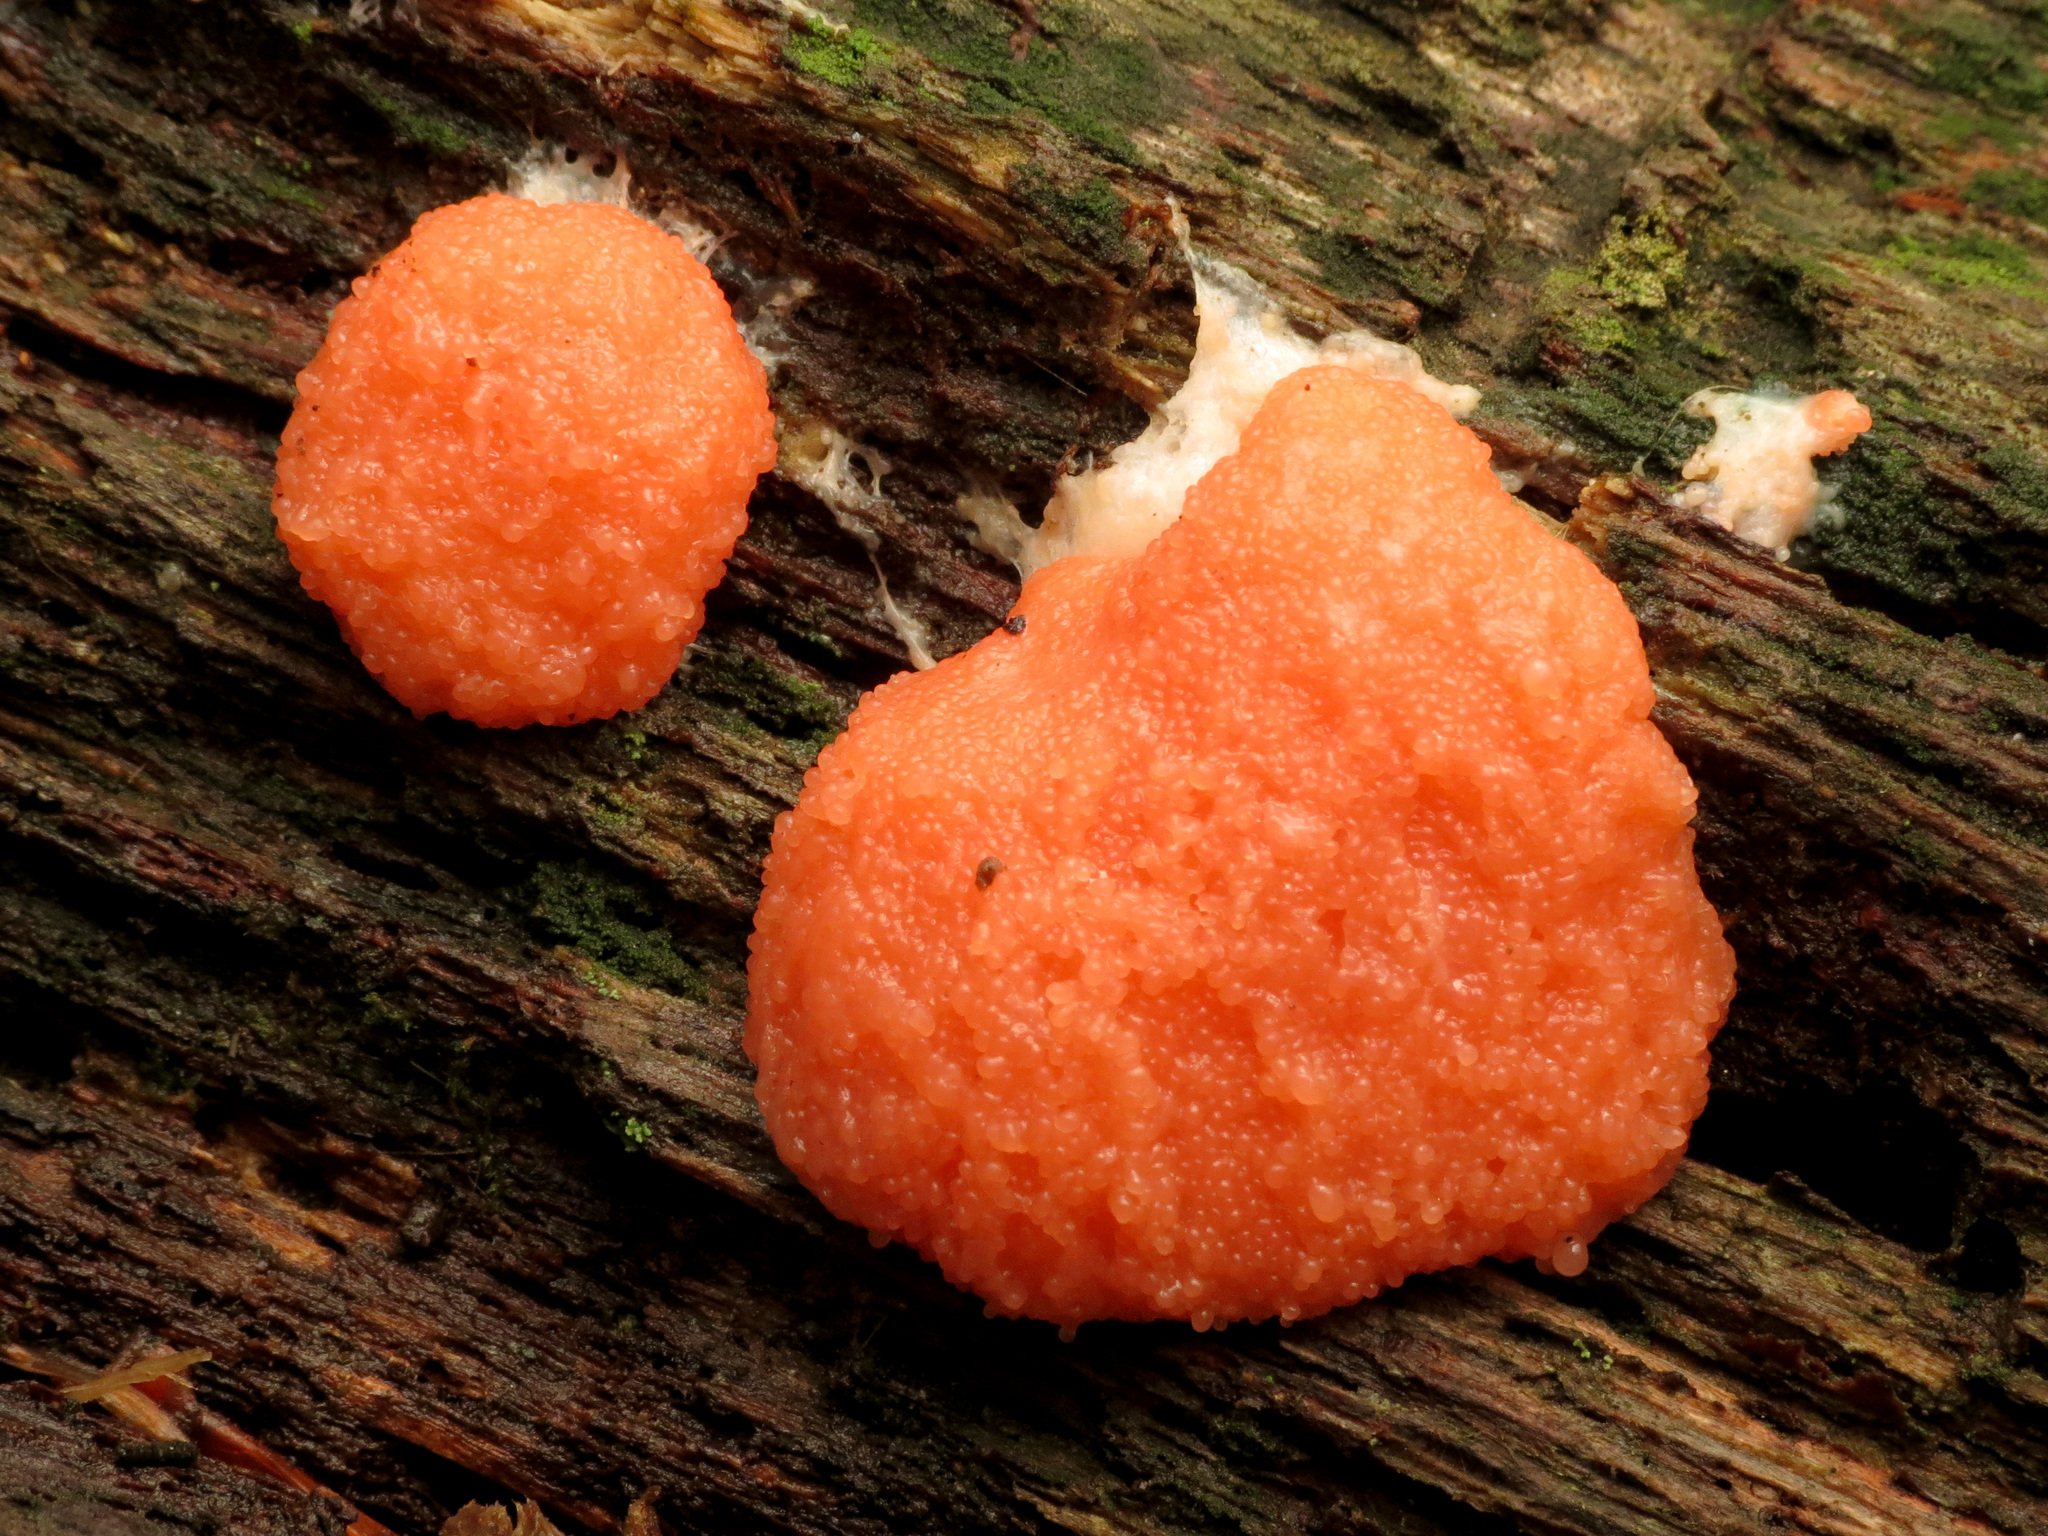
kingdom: Protozoa
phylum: Mycetozoa
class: Myxomycetes
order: Cribrariales
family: Tubiferaceae
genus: Tubifera
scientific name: Tubifera ferruginosa
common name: Red raspberry slime mold
